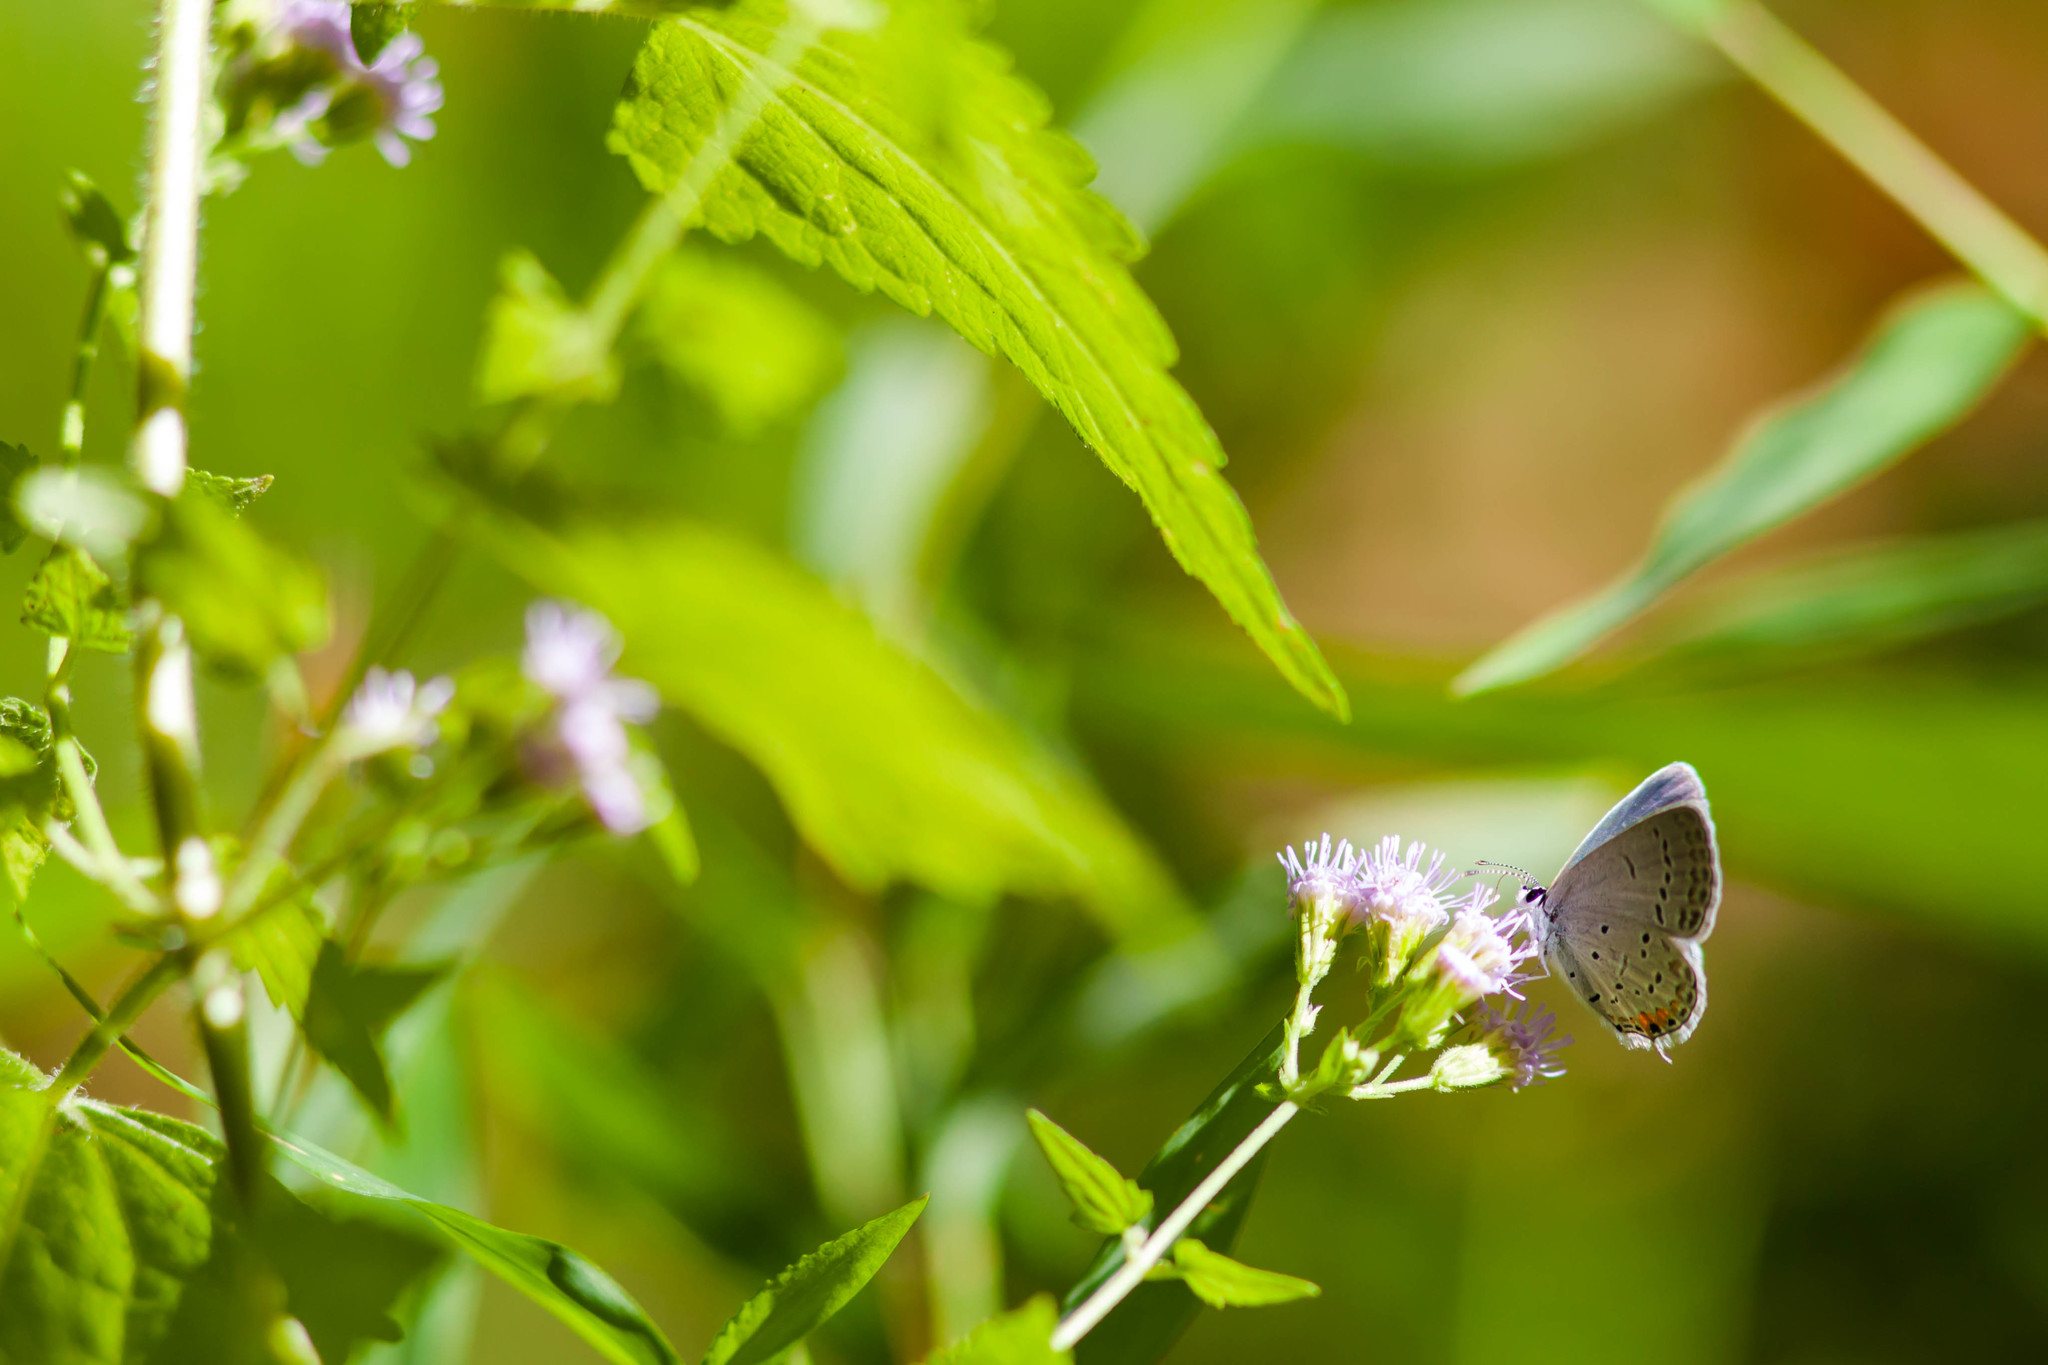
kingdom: Animalia
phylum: Arthropoda
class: Insecta
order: Lepidoptera
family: Lycaenidae
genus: Elkalyce
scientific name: Elkalyce comyntas
